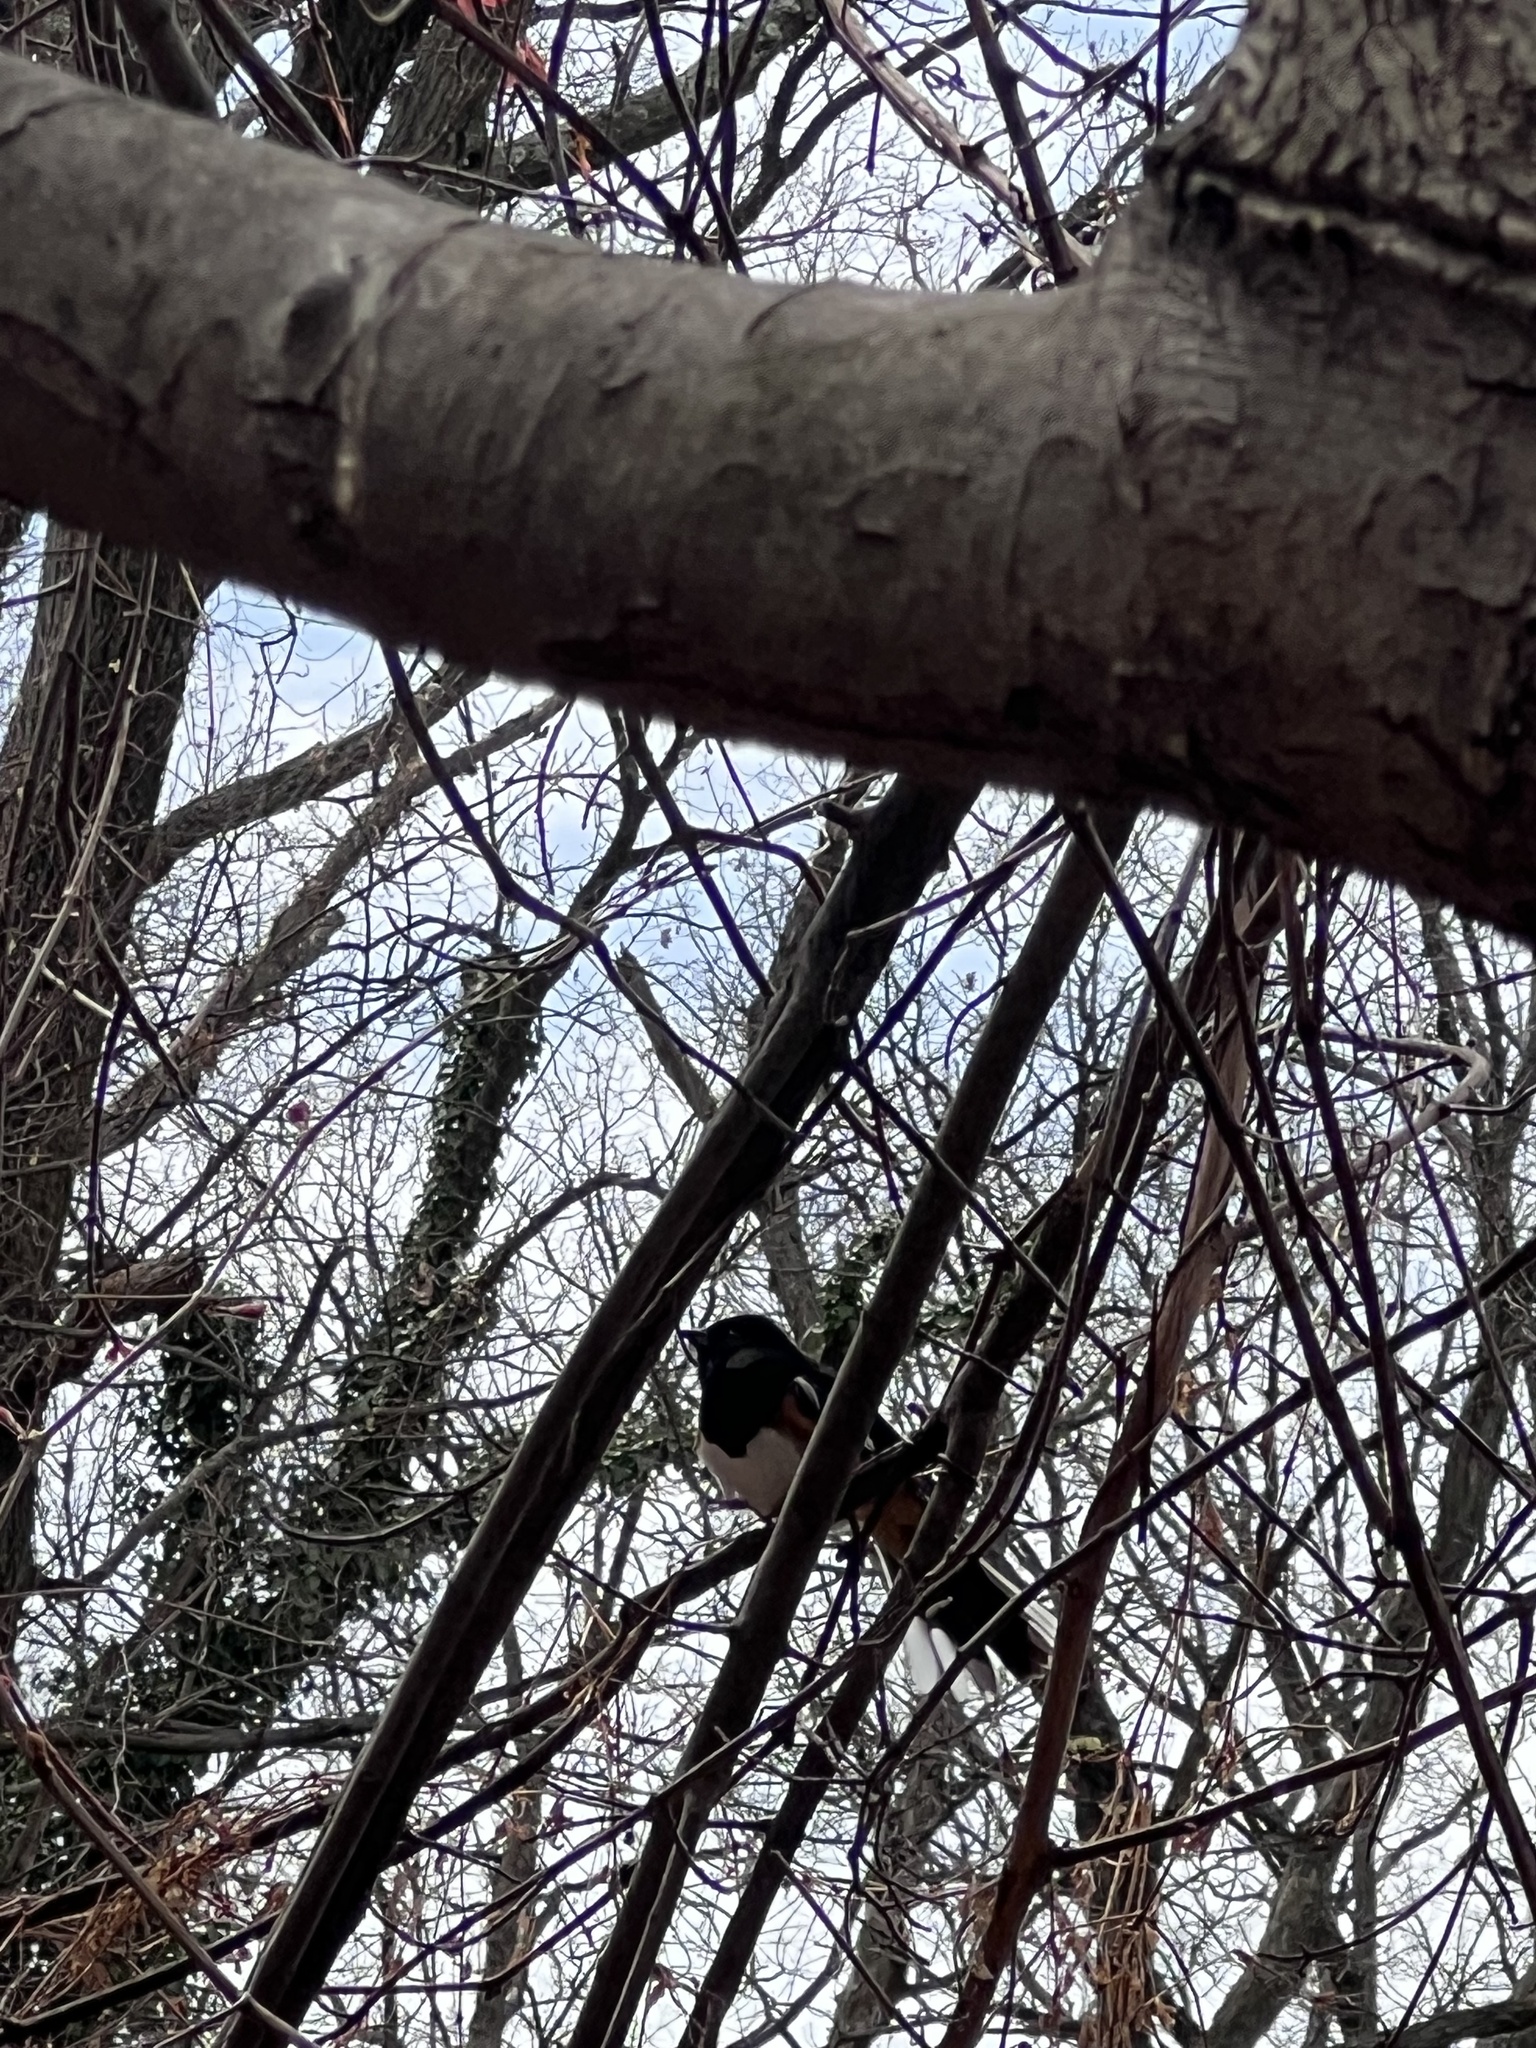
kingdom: Animalia
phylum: Chordata
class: Aves
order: Passeriformes
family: Passerellidae
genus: Pipilo
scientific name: Pipilo erythrophthalmus
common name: Eastern towhee
